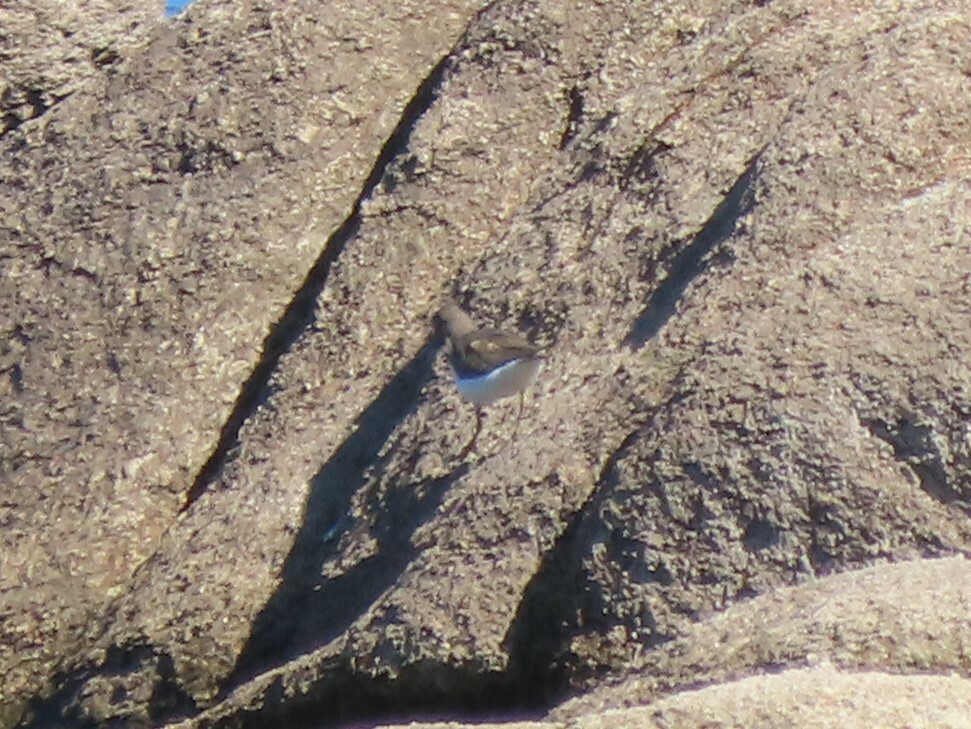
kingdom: Animalia
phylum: Chordata
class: Aves
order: Charadriiformes
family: Scolopacidae
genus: Actitis
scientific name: Actitis hypoleucos
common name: Common sandpiper
